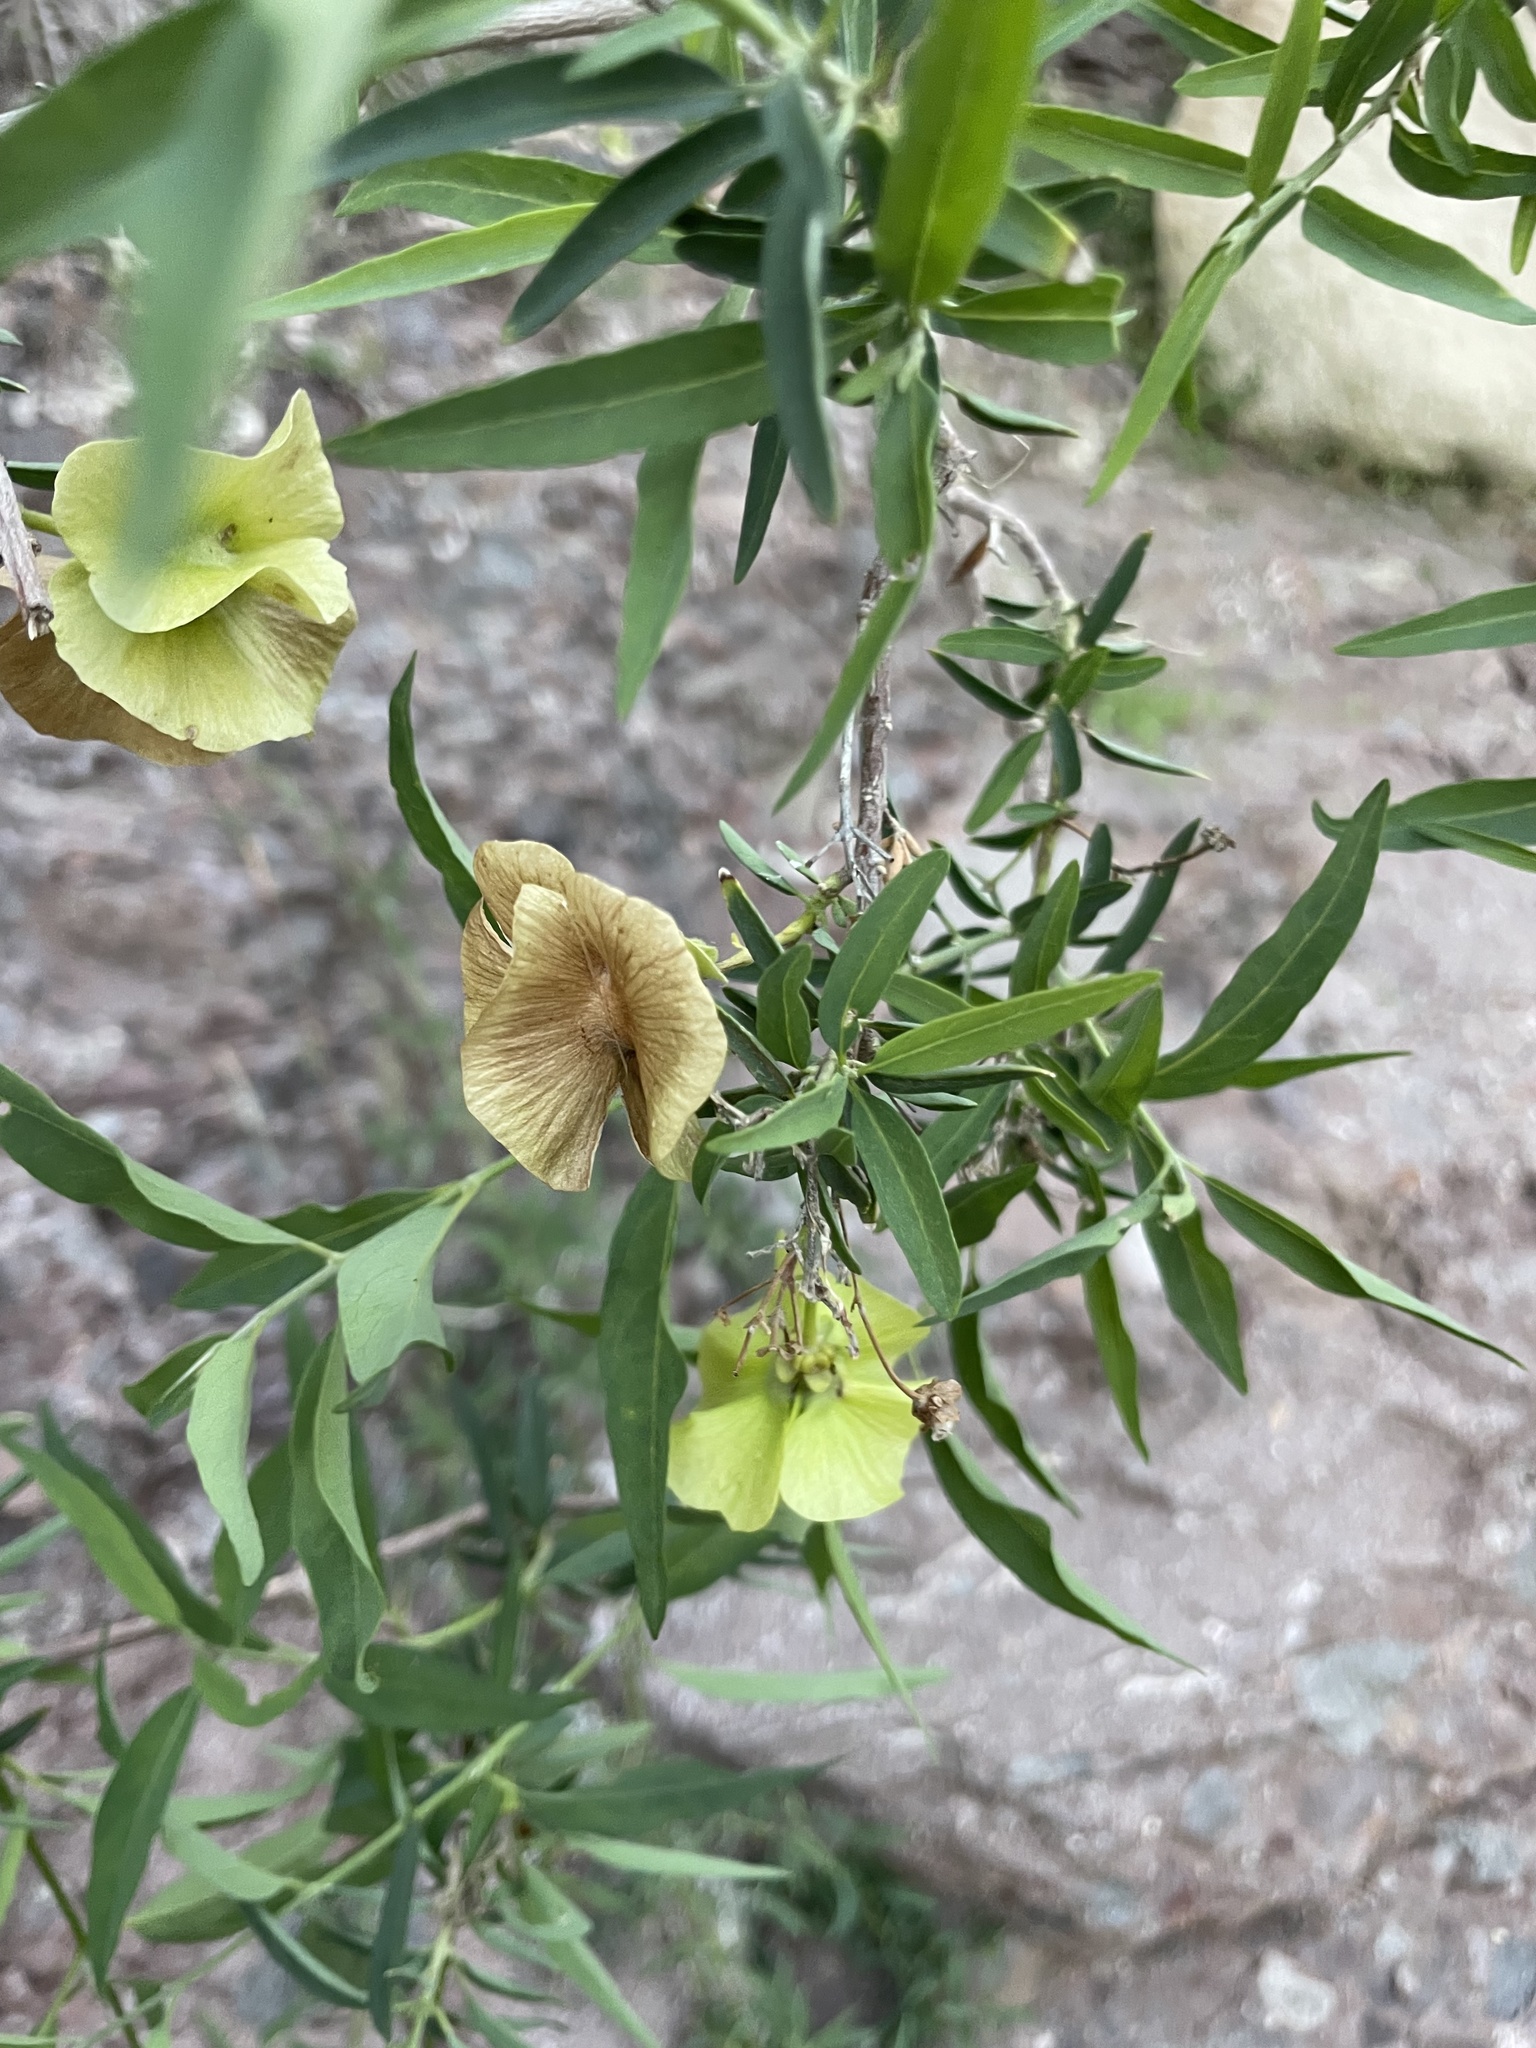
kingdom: Plantae
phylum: Tracheophyta
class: Magnoliopsida
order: Malpighiales
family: Malpighiaceae
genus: Callaeum
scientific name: Callaeum macropterum
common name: Mexican butterfly-vine
